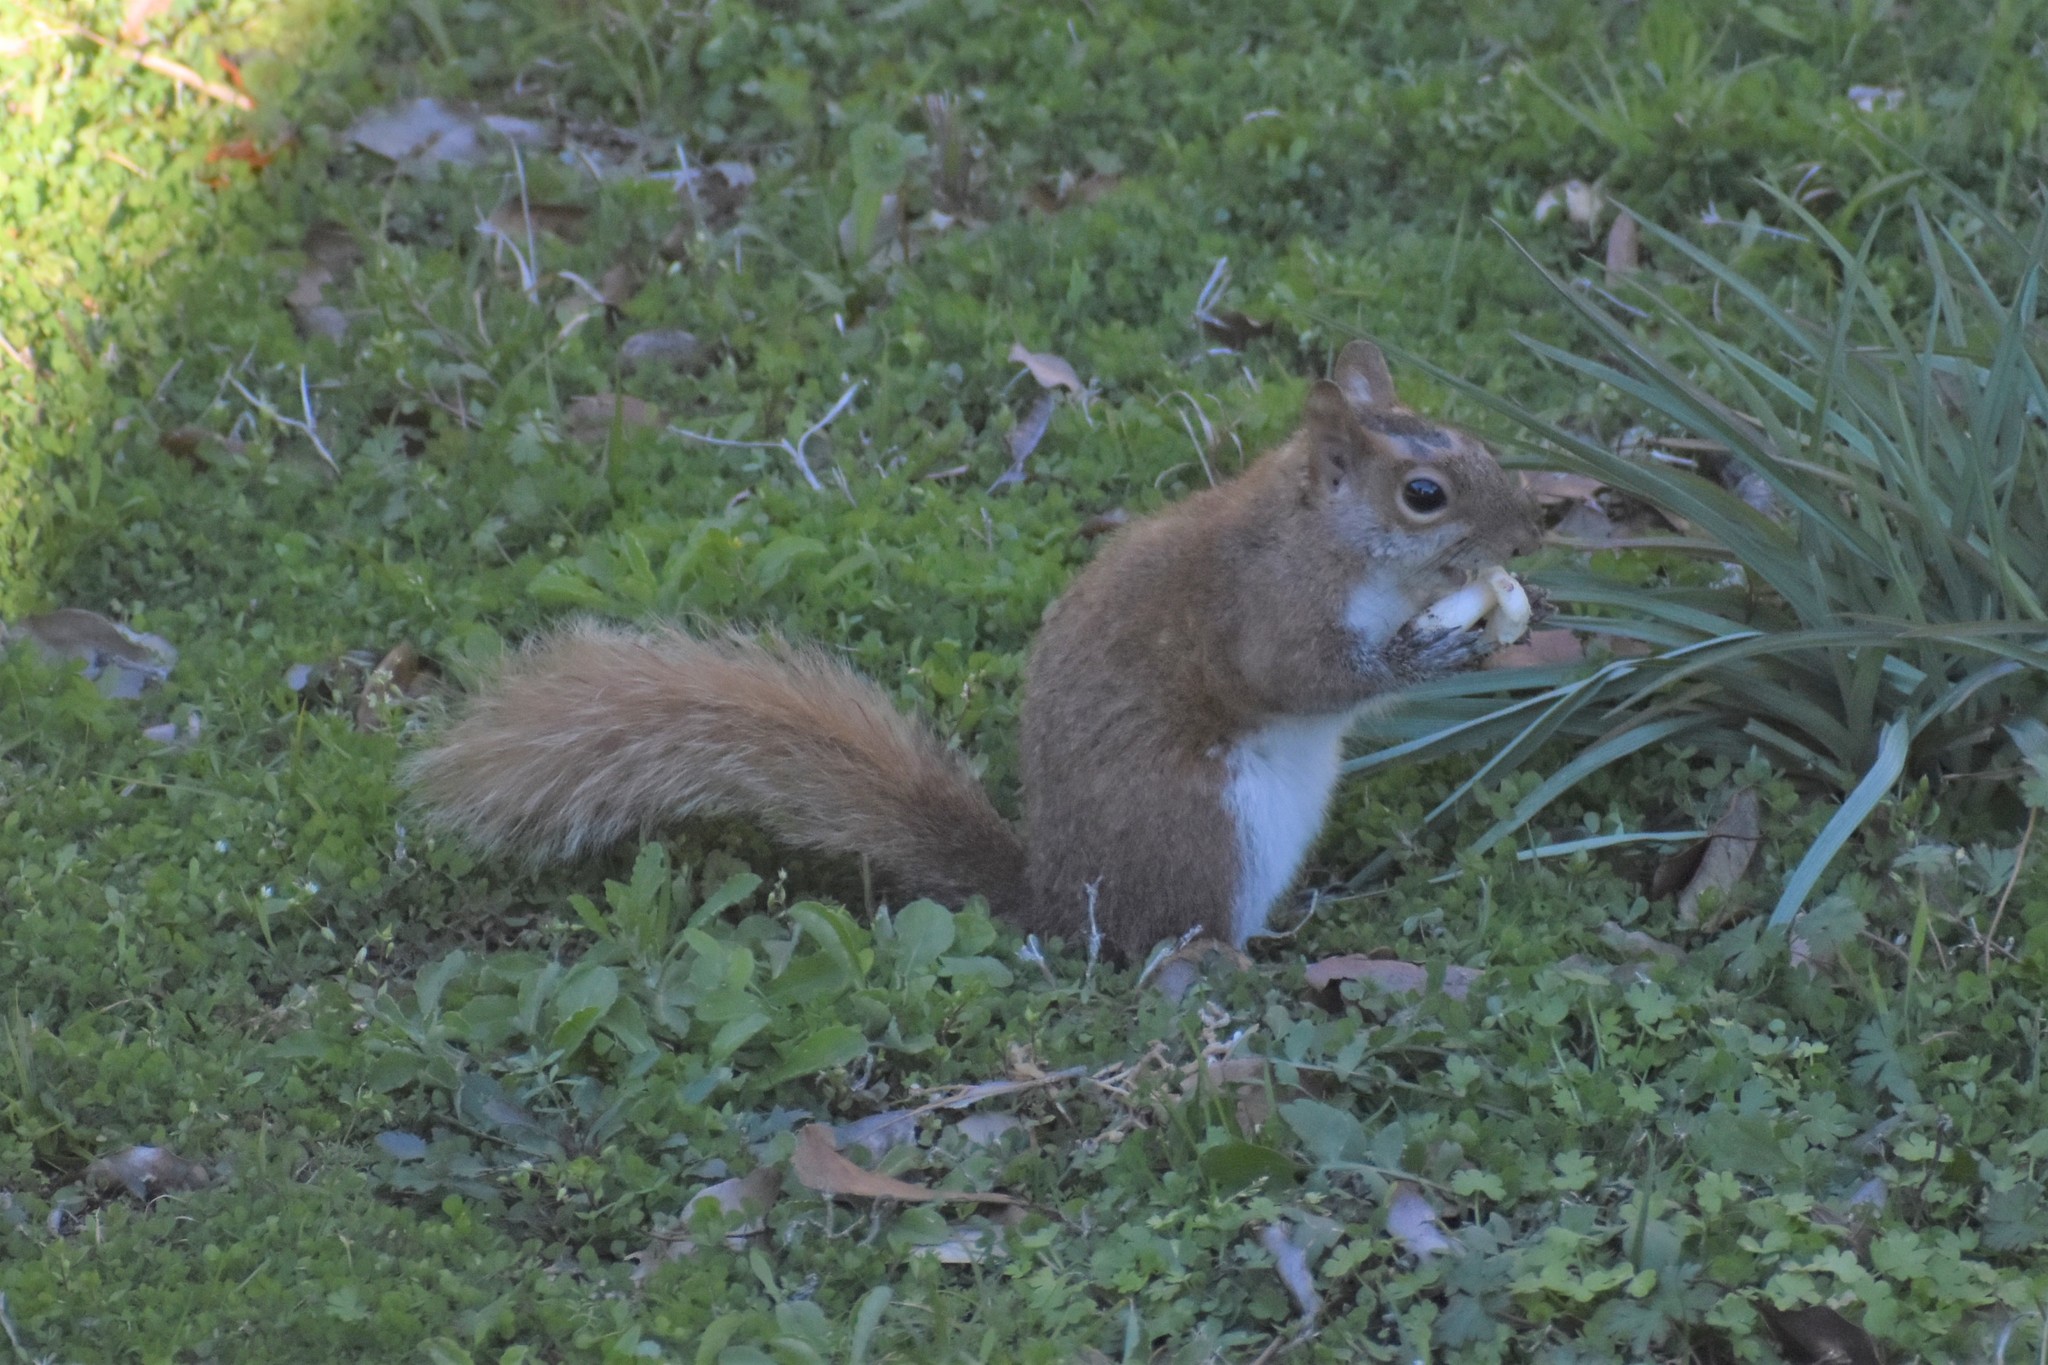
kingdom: Animalia
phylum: Chordata
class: Mammalia
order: Rodentia
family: Sciuridae
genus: Sciurus
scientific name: Sciurus carolinensis
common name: Eastern gray squirrel
